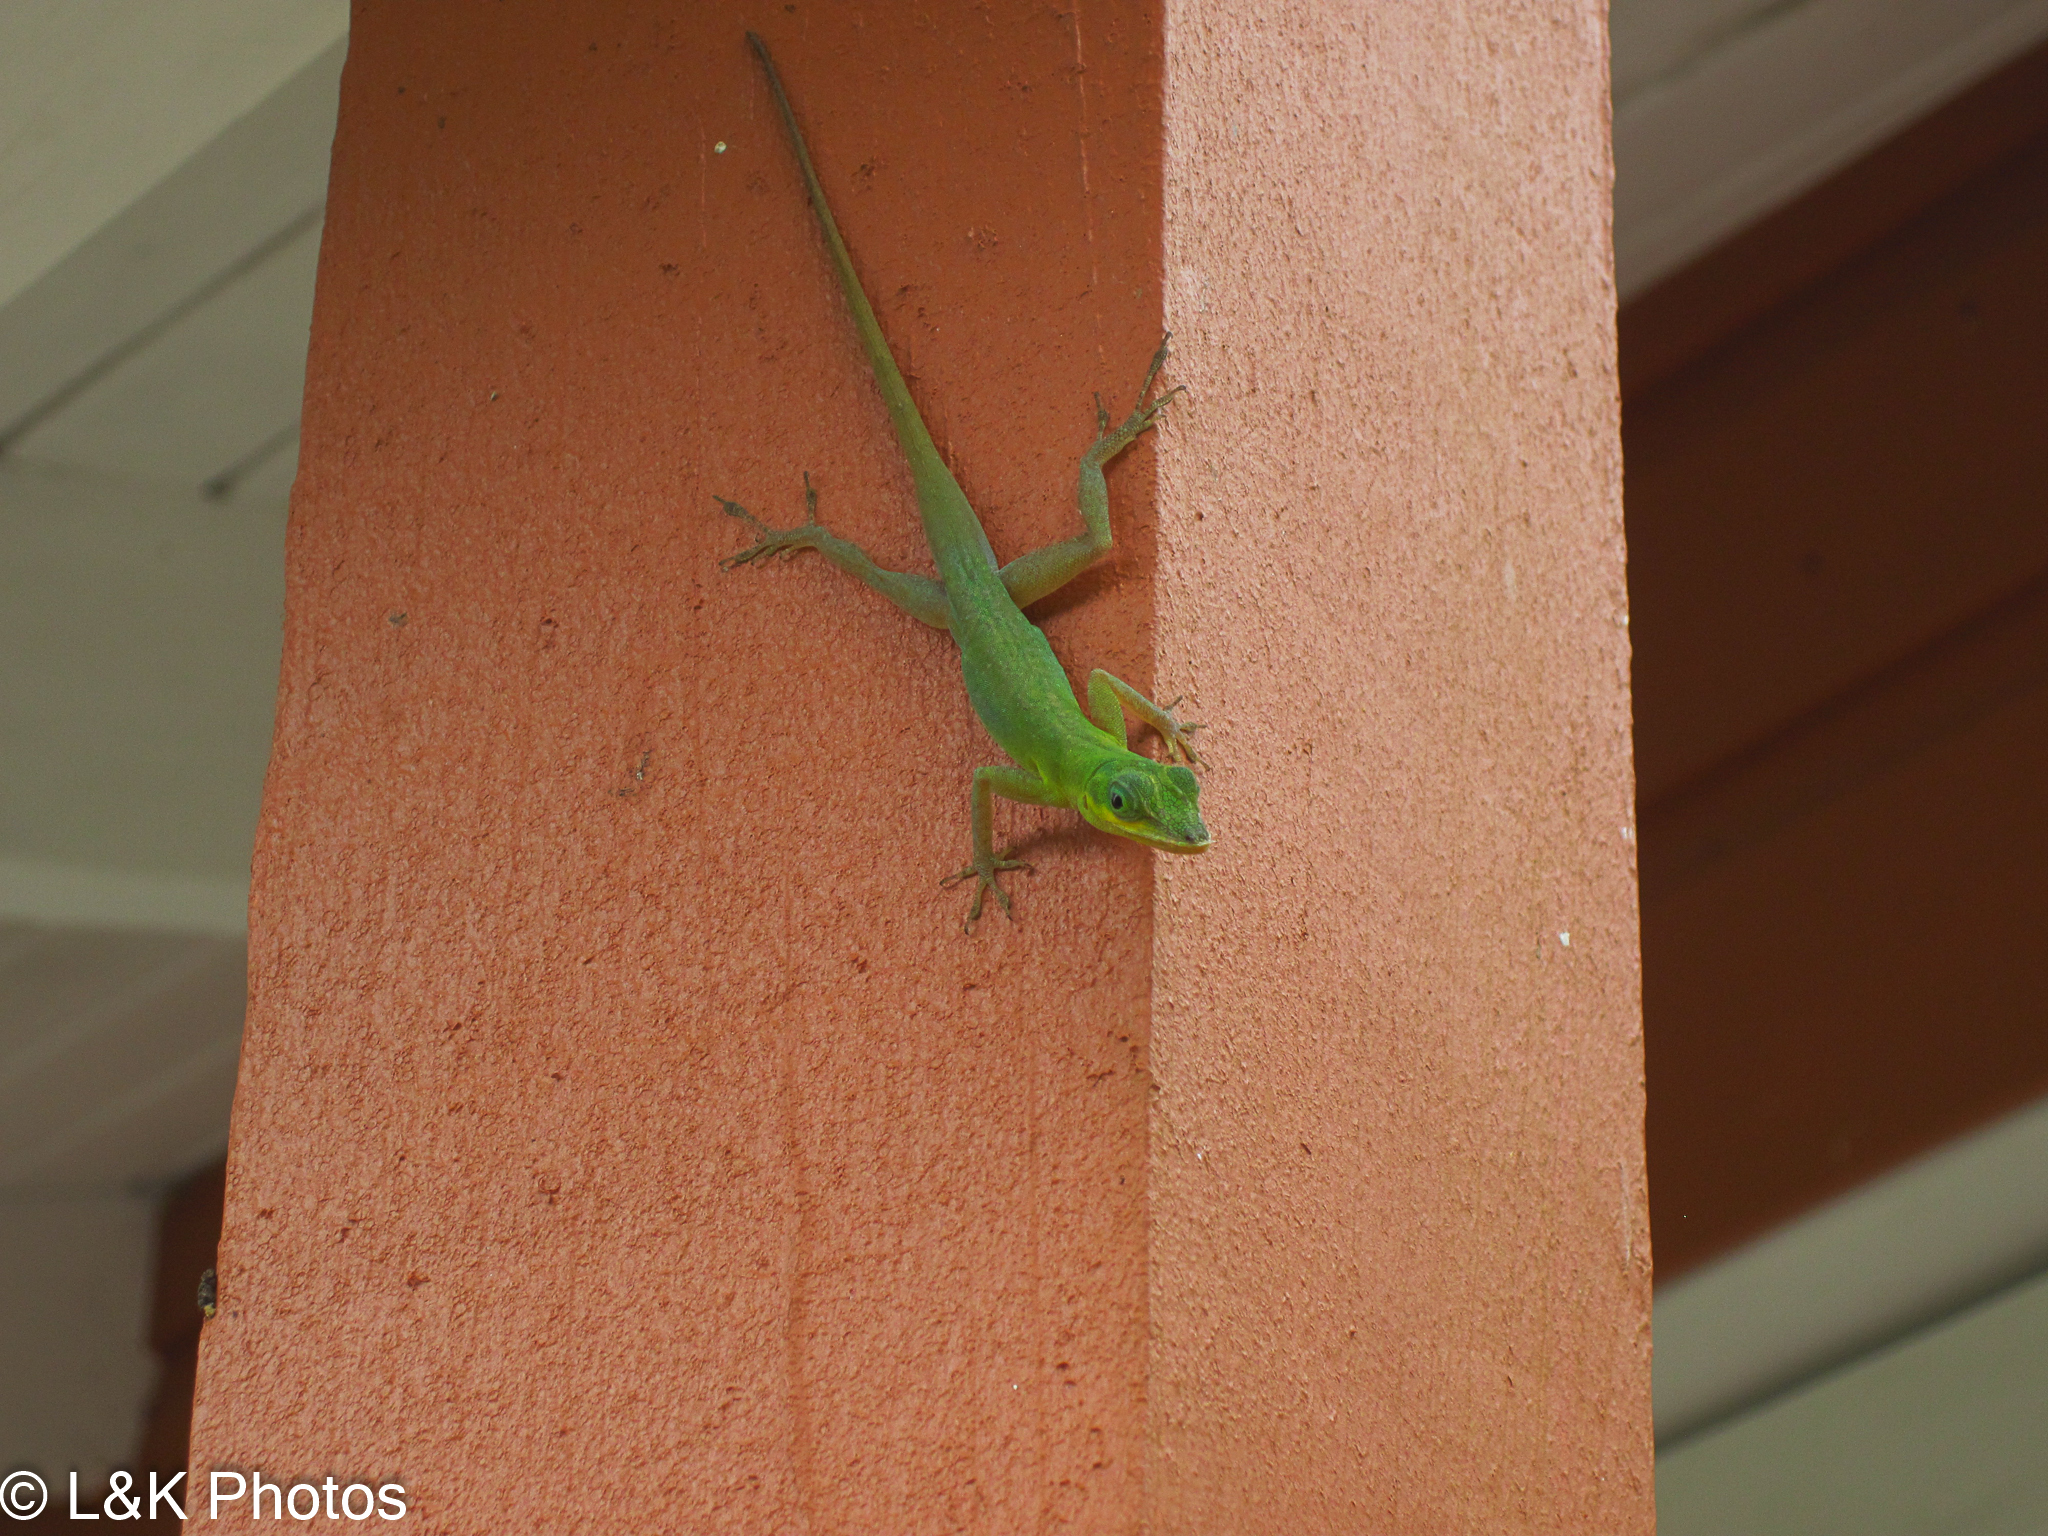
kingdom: Animalia
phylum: Chordata
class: Squamata
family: Dactyloidae
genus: Anolis
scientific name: Anolis trinitatis
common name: Saint vincent's bush anole
